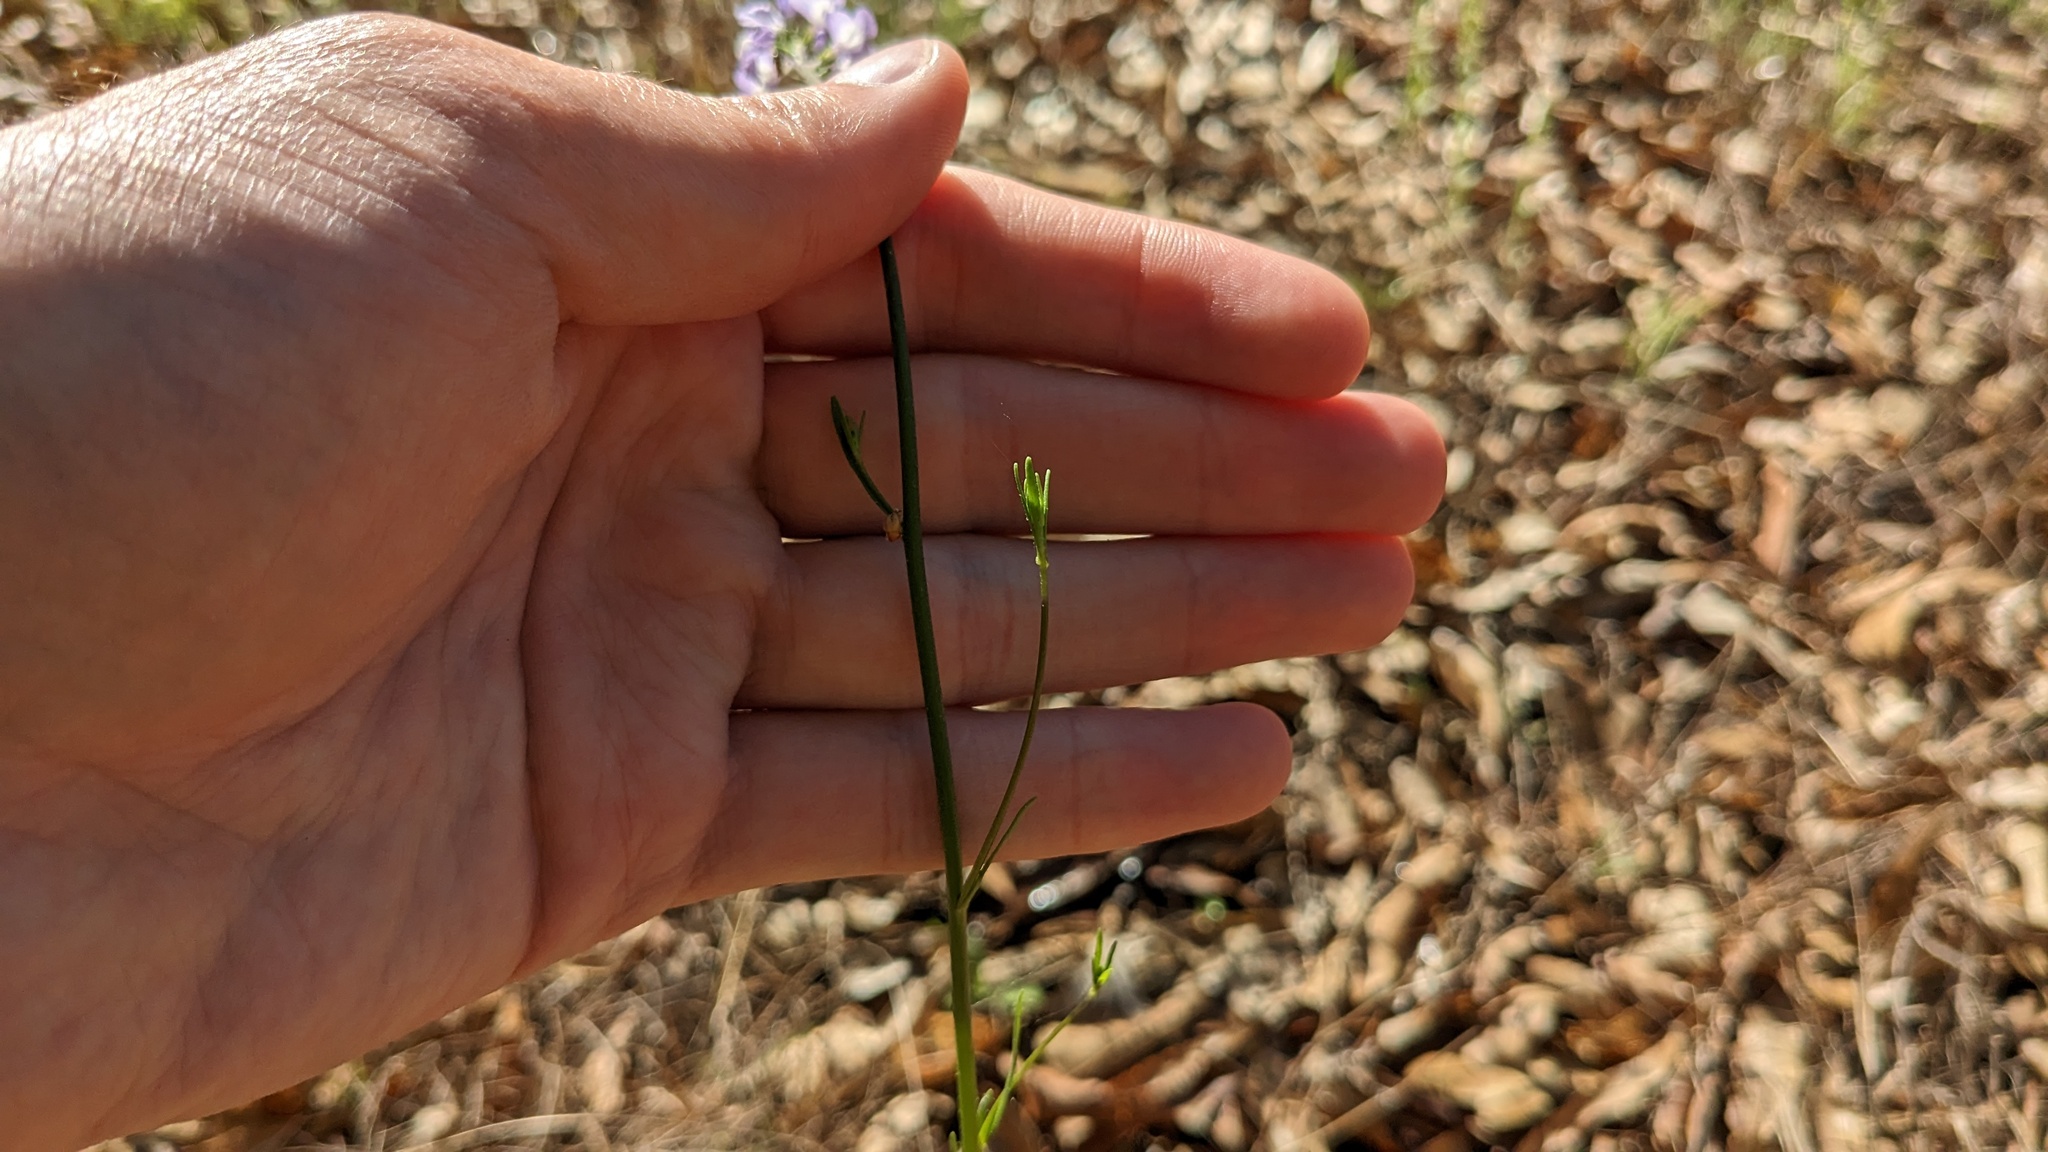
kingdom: Plantae
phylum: Tracheophyta
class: Magnoliopsida
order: Lamiales
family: Plantaginaceae
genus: Nuttallanthus
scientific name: Nuttallanthus canadensis
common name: Blue toadflax
